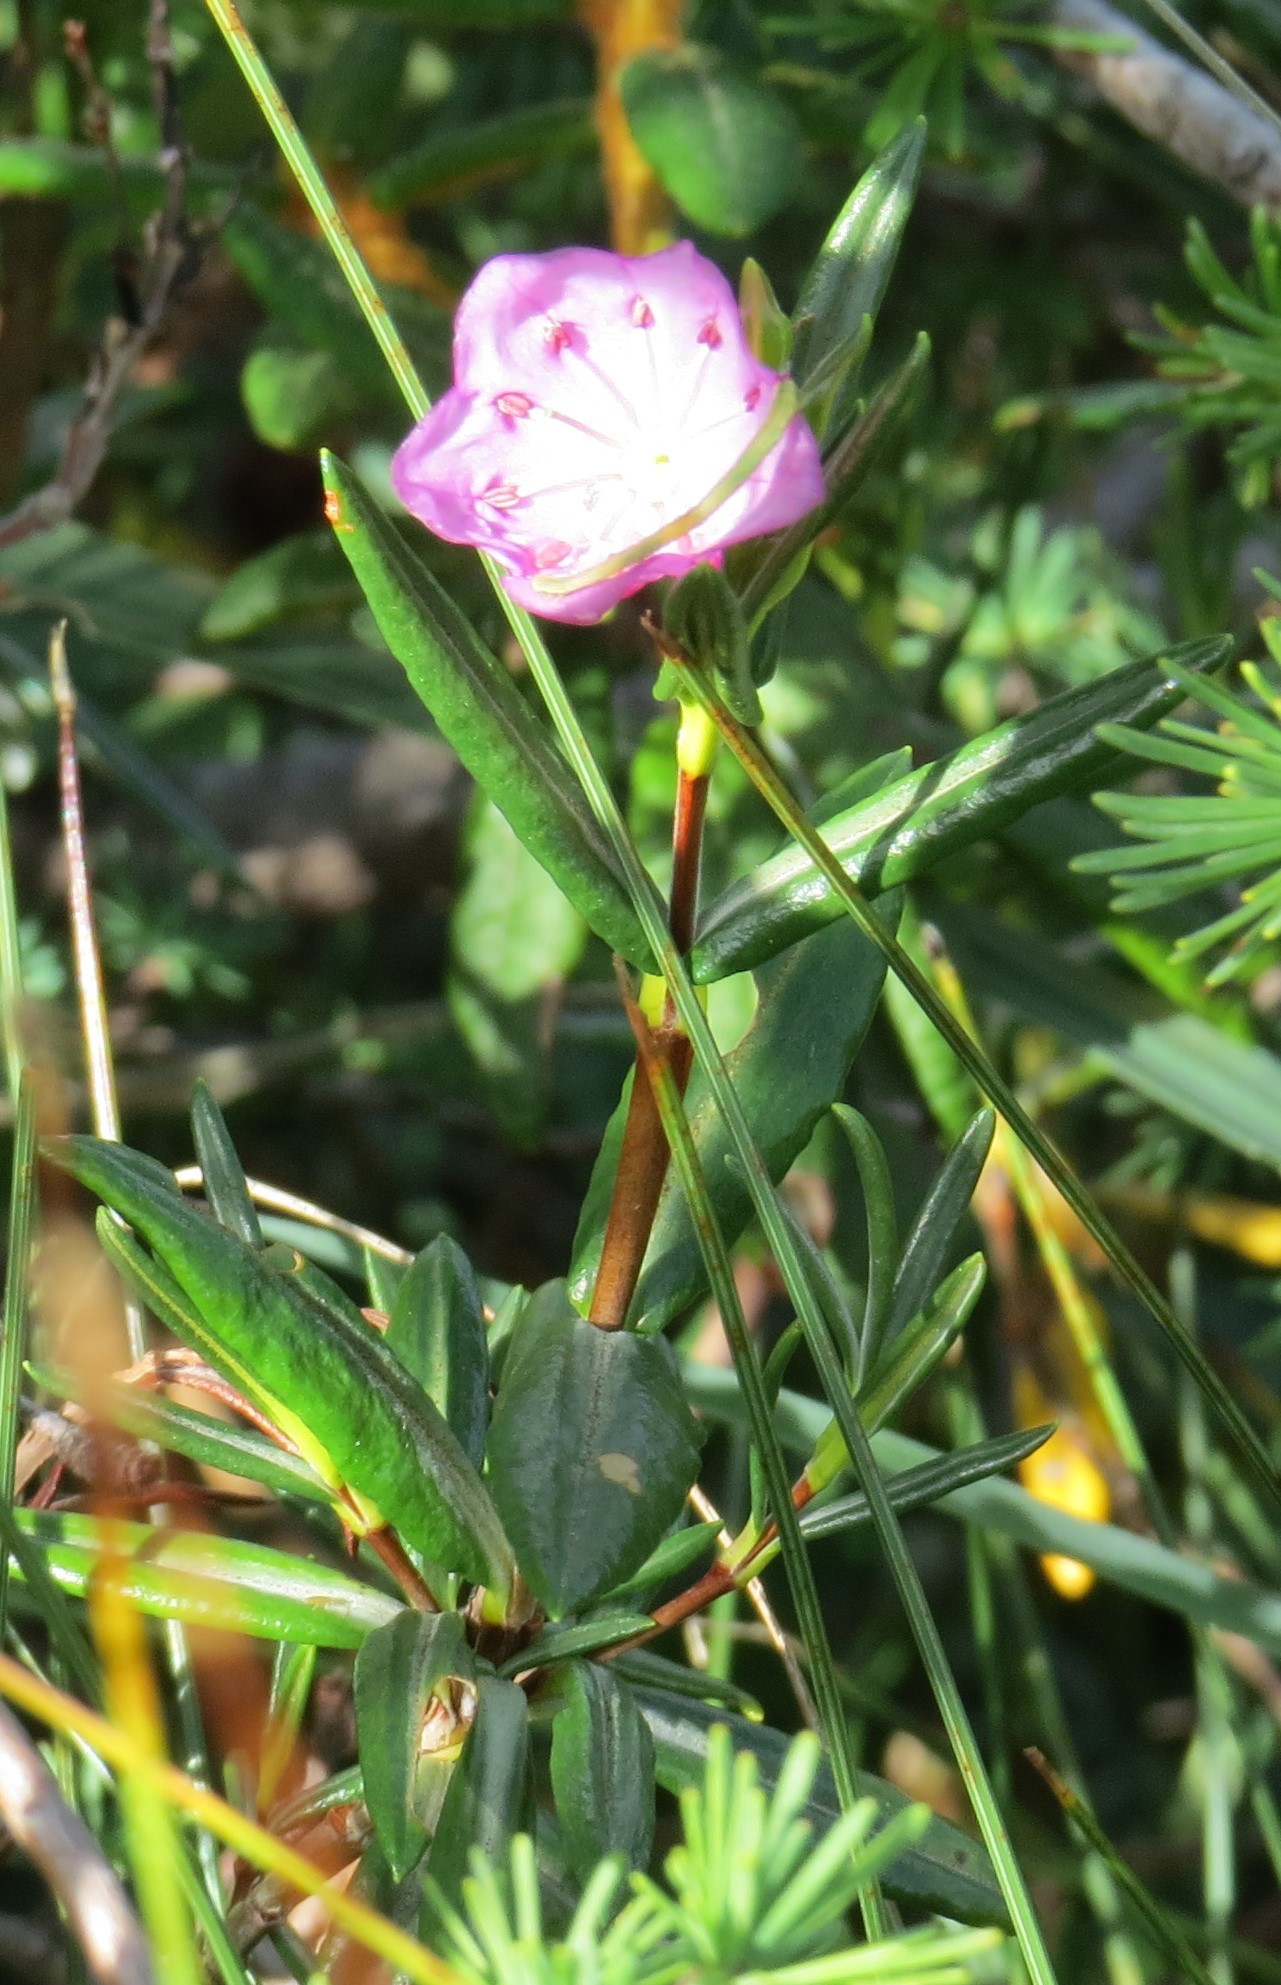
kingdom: Plantae
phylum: Tracheophyta
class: Magnoliopsida
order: Ericales
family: Ericaceae
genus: Kalmia
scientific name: Kalmia polifolia
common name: Bog-laurel
